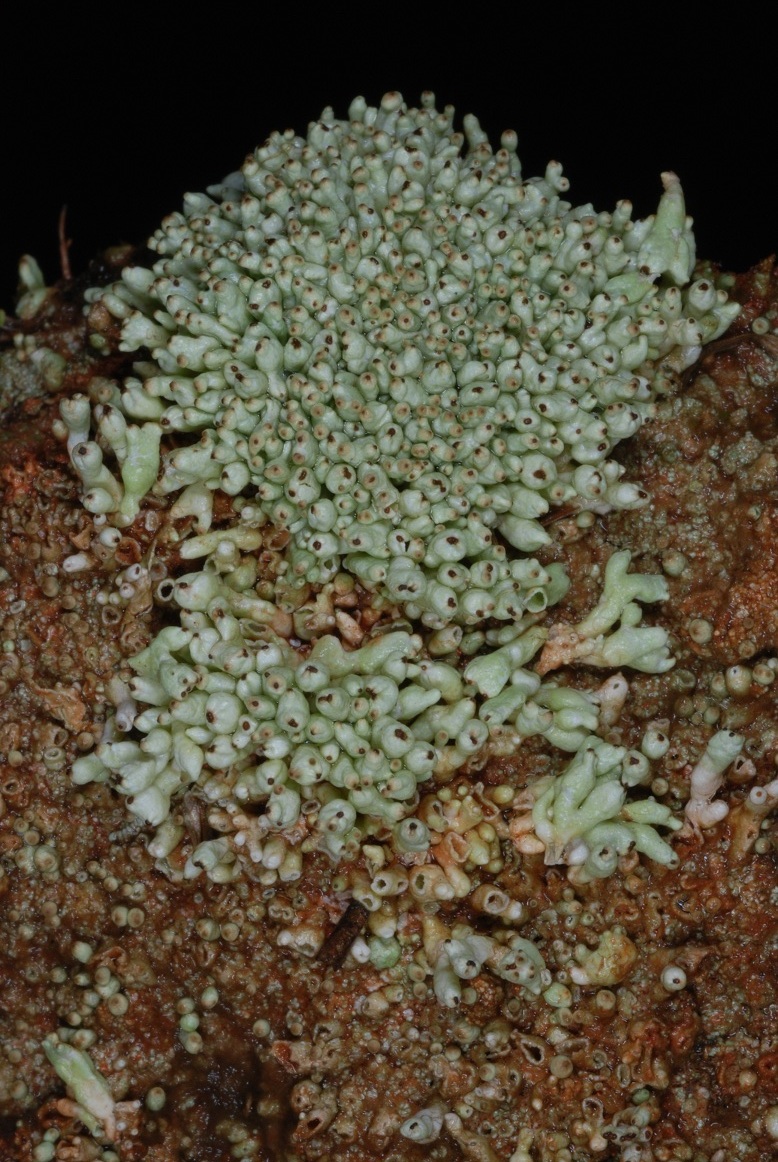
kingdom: Fungi
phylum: Ascomycota
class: Lecanoromycetes
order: Lecanorales
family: Cladoniaceae
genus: Pycnothelia
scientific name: Pycnothelia papillaria
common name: Nipple lichen
